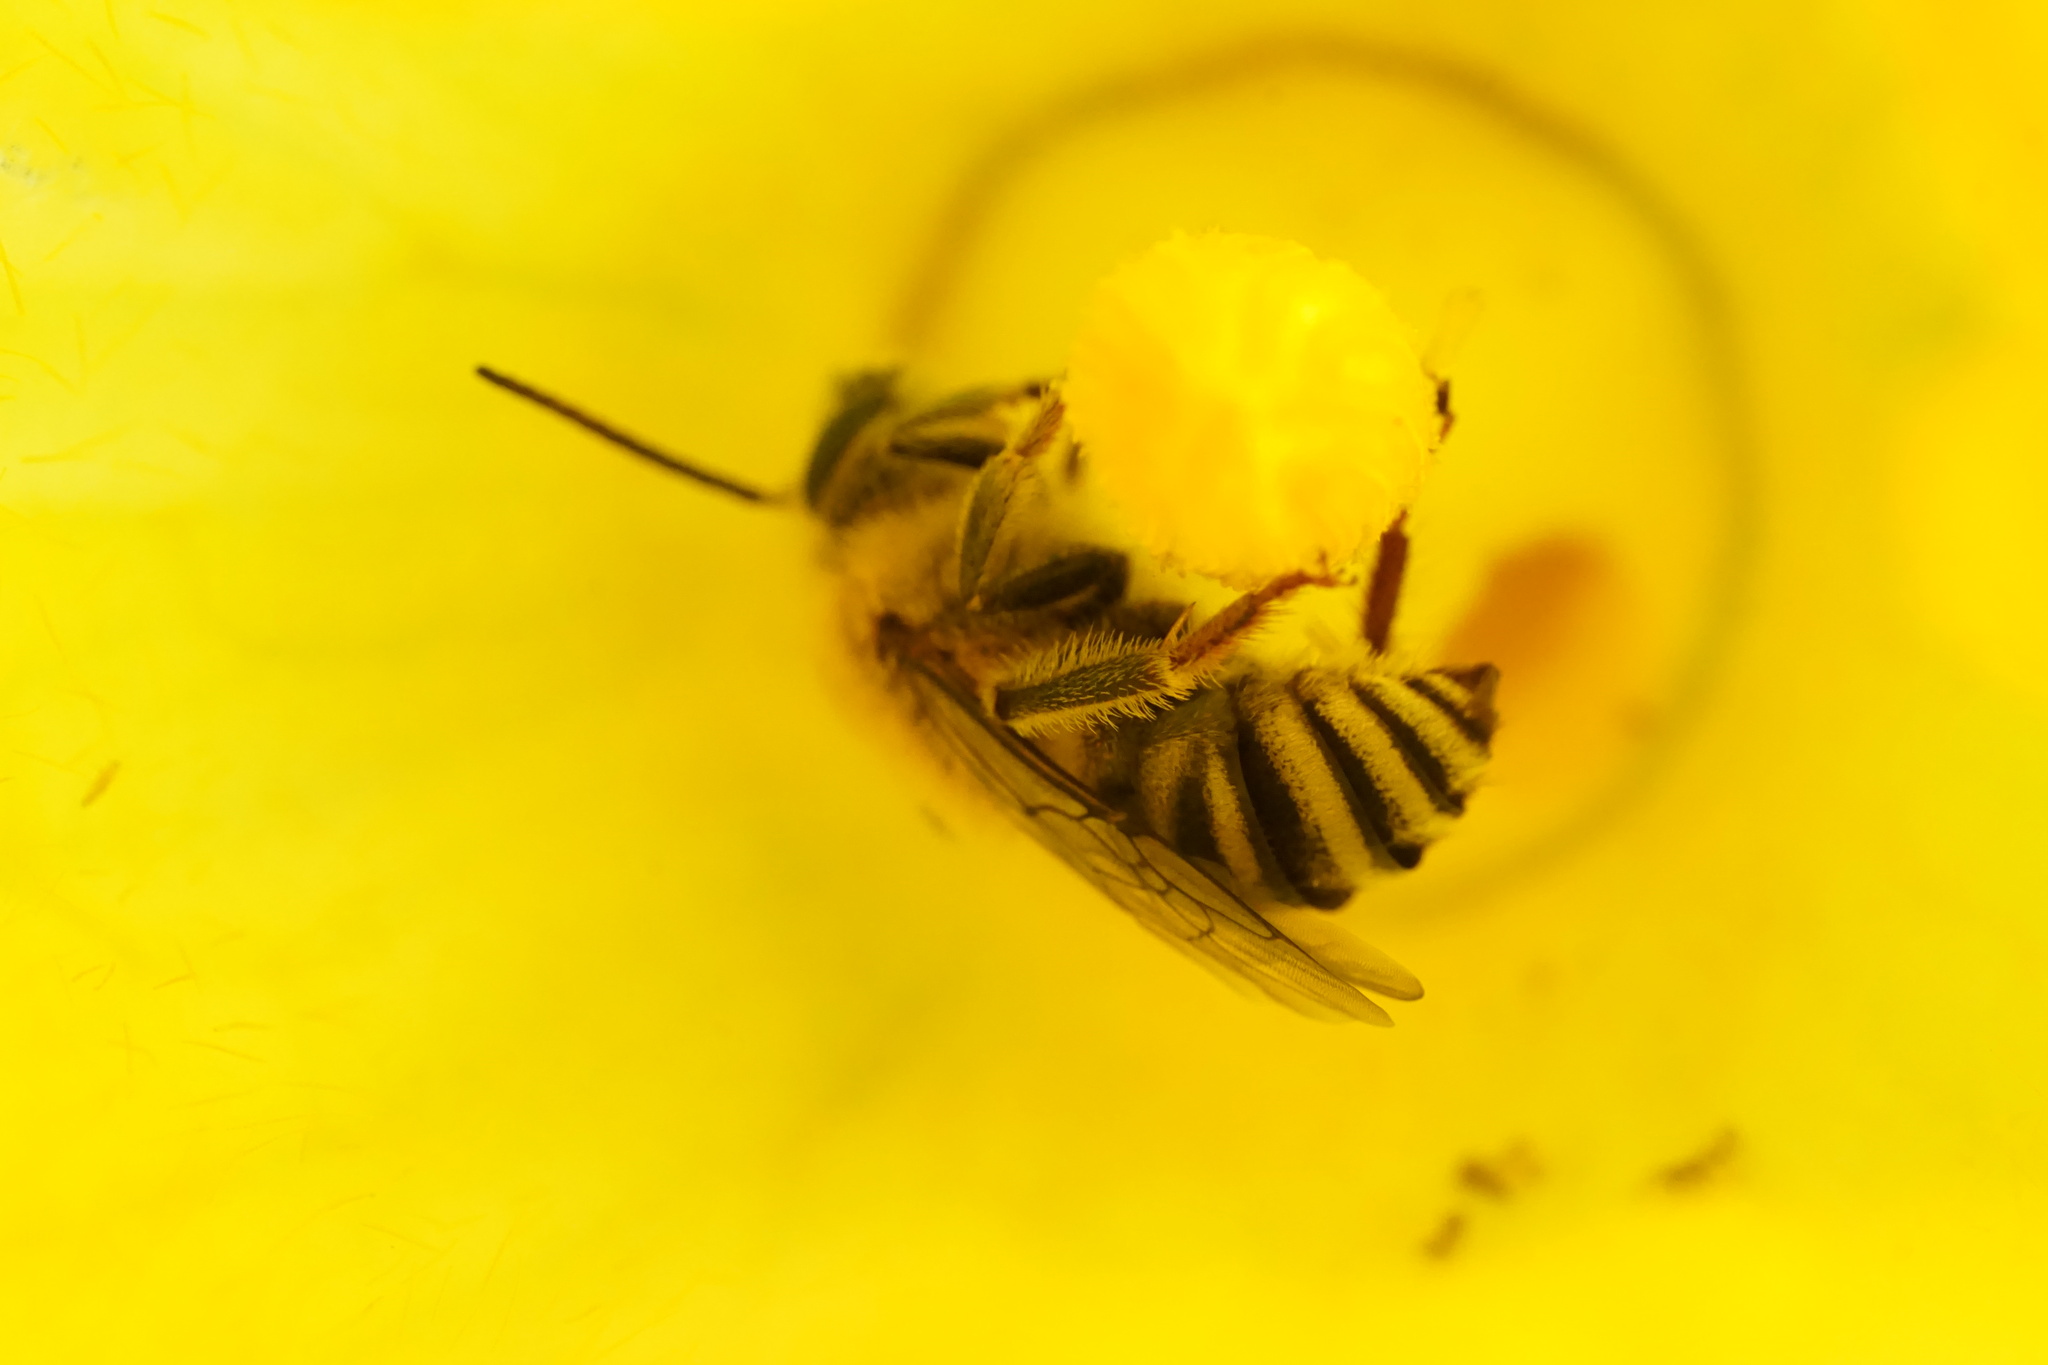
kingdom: Animalia
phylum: Arthropoda
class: Insecta
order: Hymenoptera
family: Apidae
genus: Peponapis
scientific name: Peponapis pruinosa
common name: Pruinose squash bee
